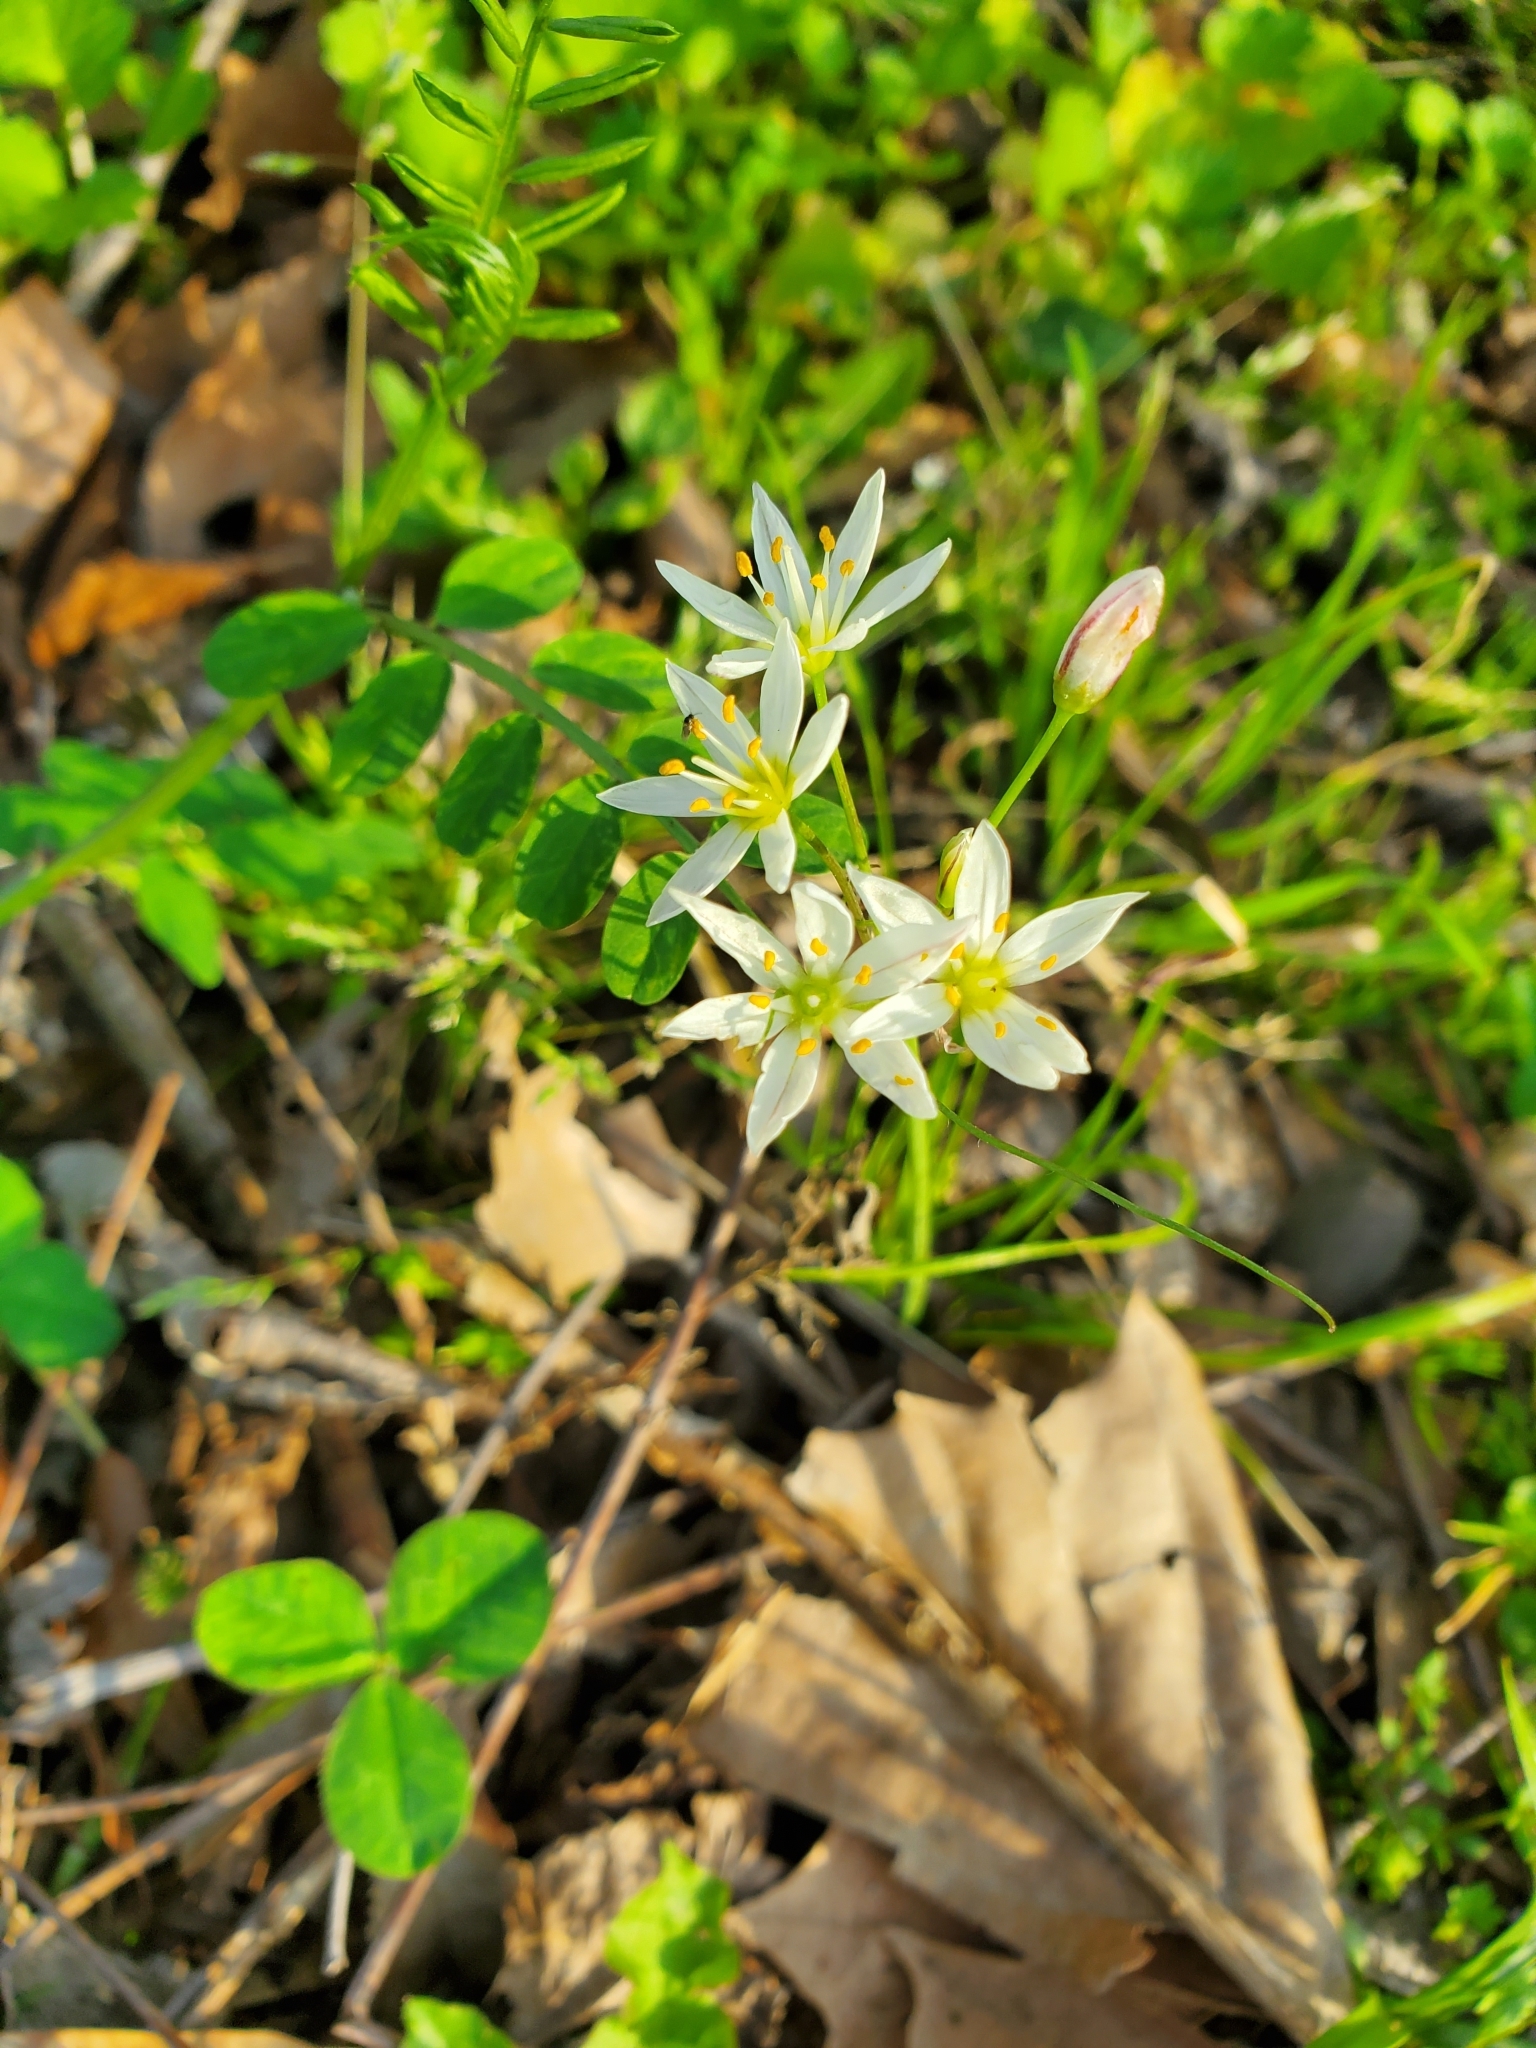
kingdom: Plantae
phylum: Tracheophyta
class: Liliopsida
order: Asparagales
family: Amaryllidaceae
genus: Nothoscordum
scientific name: Nothoscordum bivalve
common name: Crow-poison
